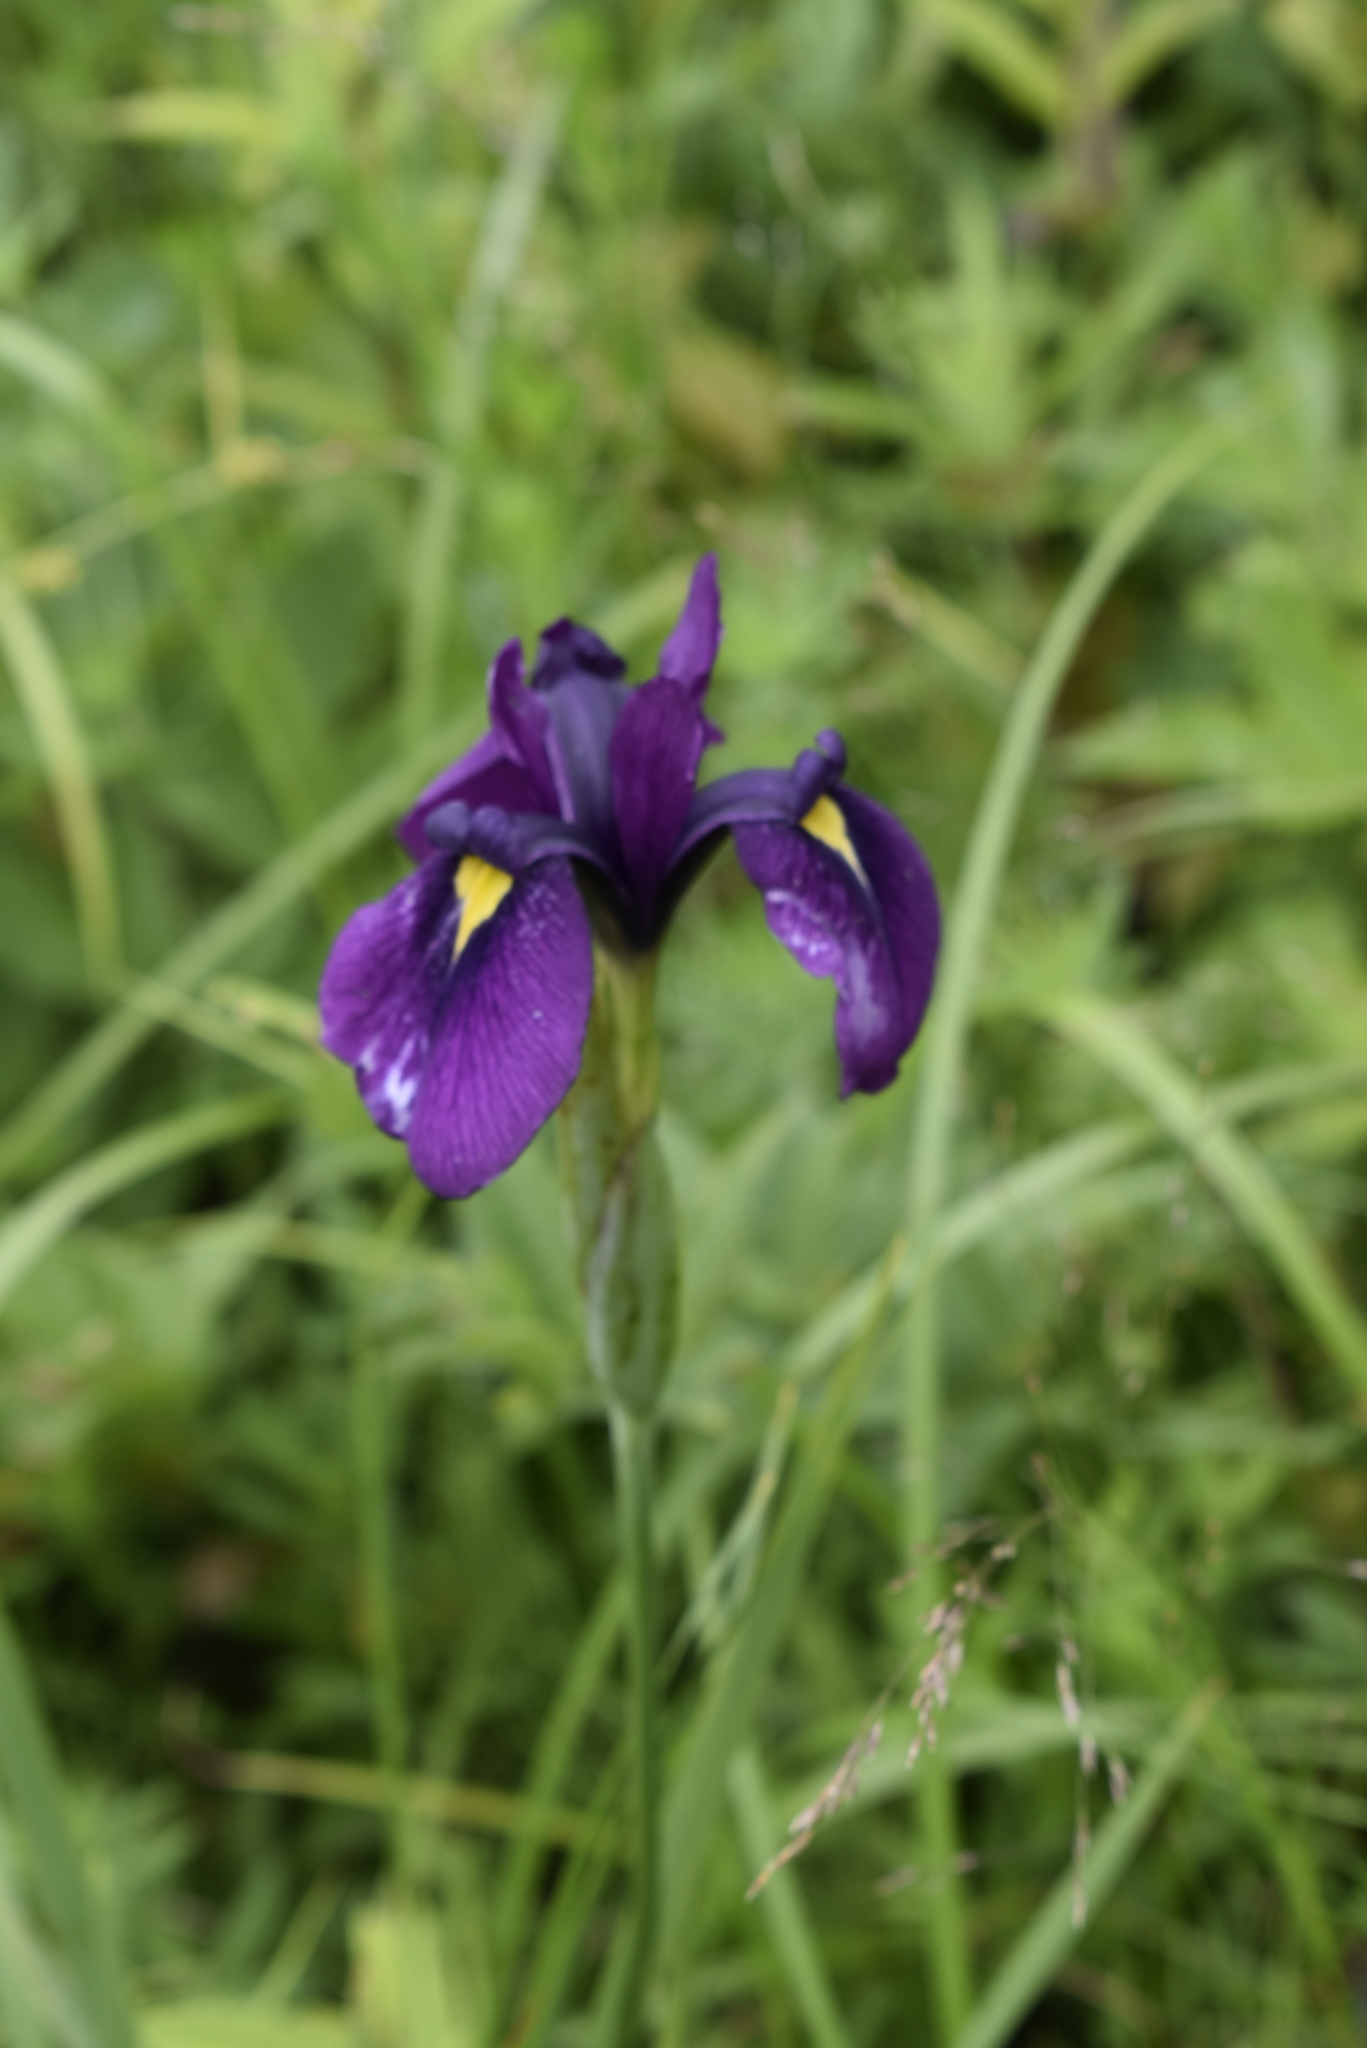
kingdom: Plantae
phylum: Tracheophyta
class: Liliopsida
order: Asparagales
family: Iridaceae
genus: Iris
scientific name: Iris ensata
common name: Beaked iris
